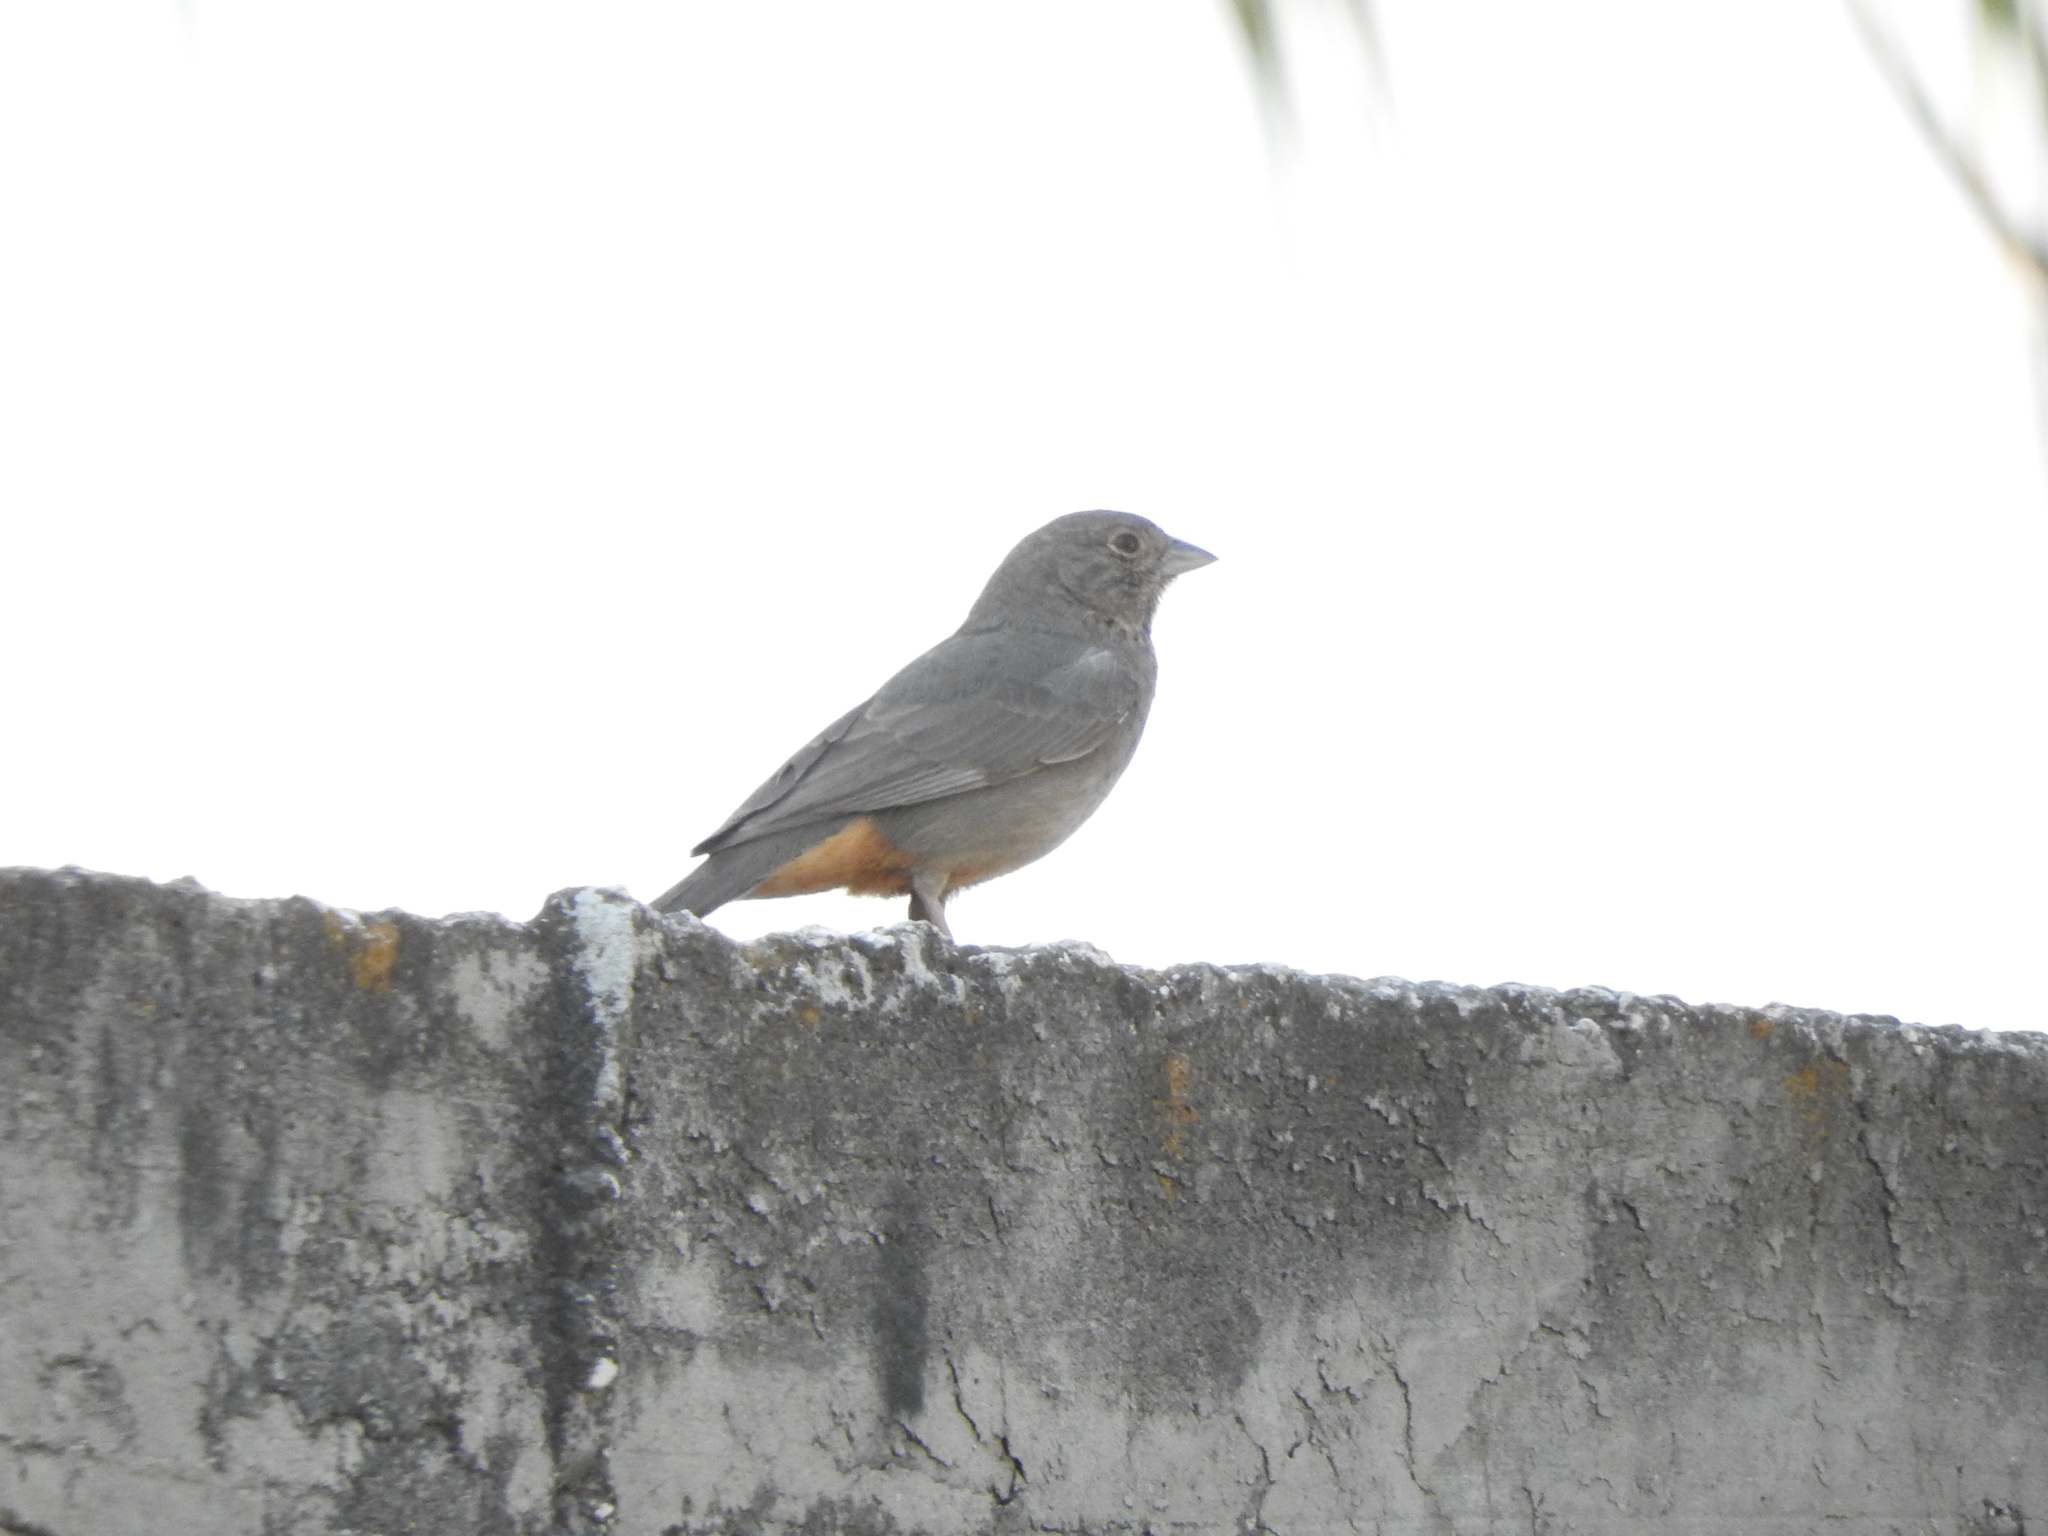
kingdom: Animalia
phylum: Chordata
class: Aves
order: Passeriformes
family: Passerellidae
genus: Melozone
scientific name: Melozone fusca
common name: Canyon towhee
